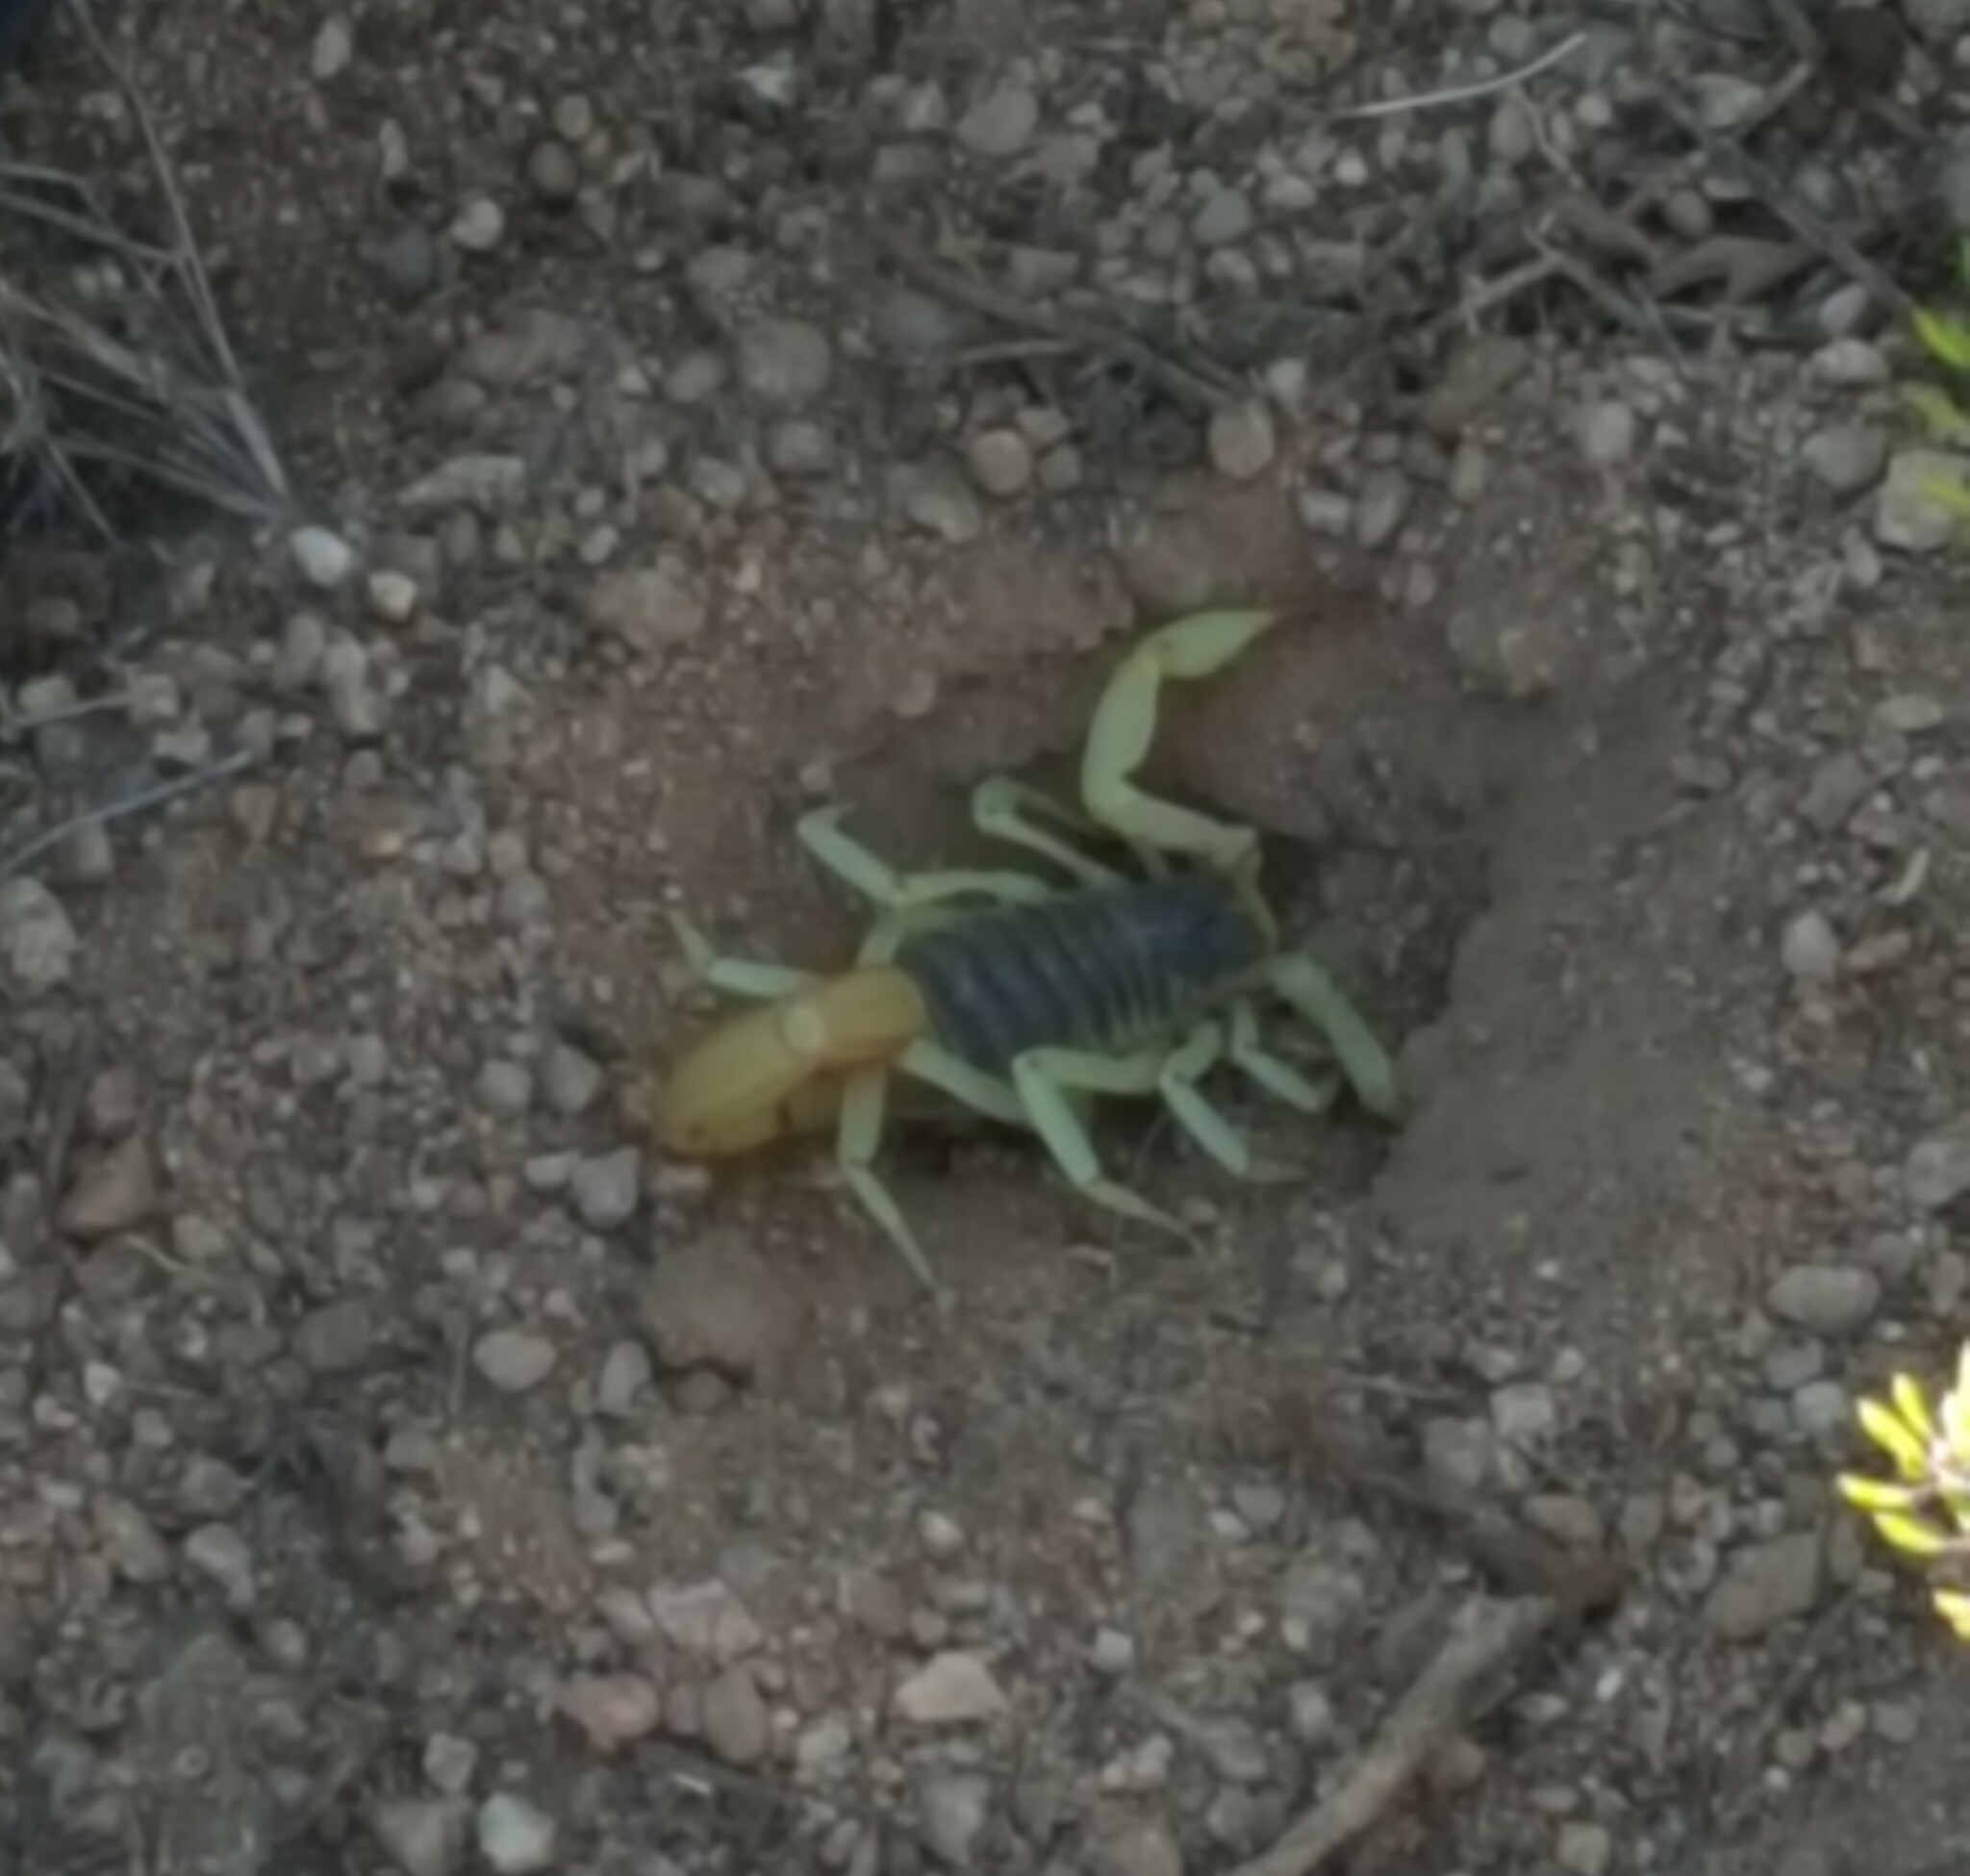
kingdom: Animalia
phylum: Arthropoda
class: Arachnida
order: Scorpiones
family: Hadruridae
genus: Hadrurus
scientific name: Hadrurus obscurus
